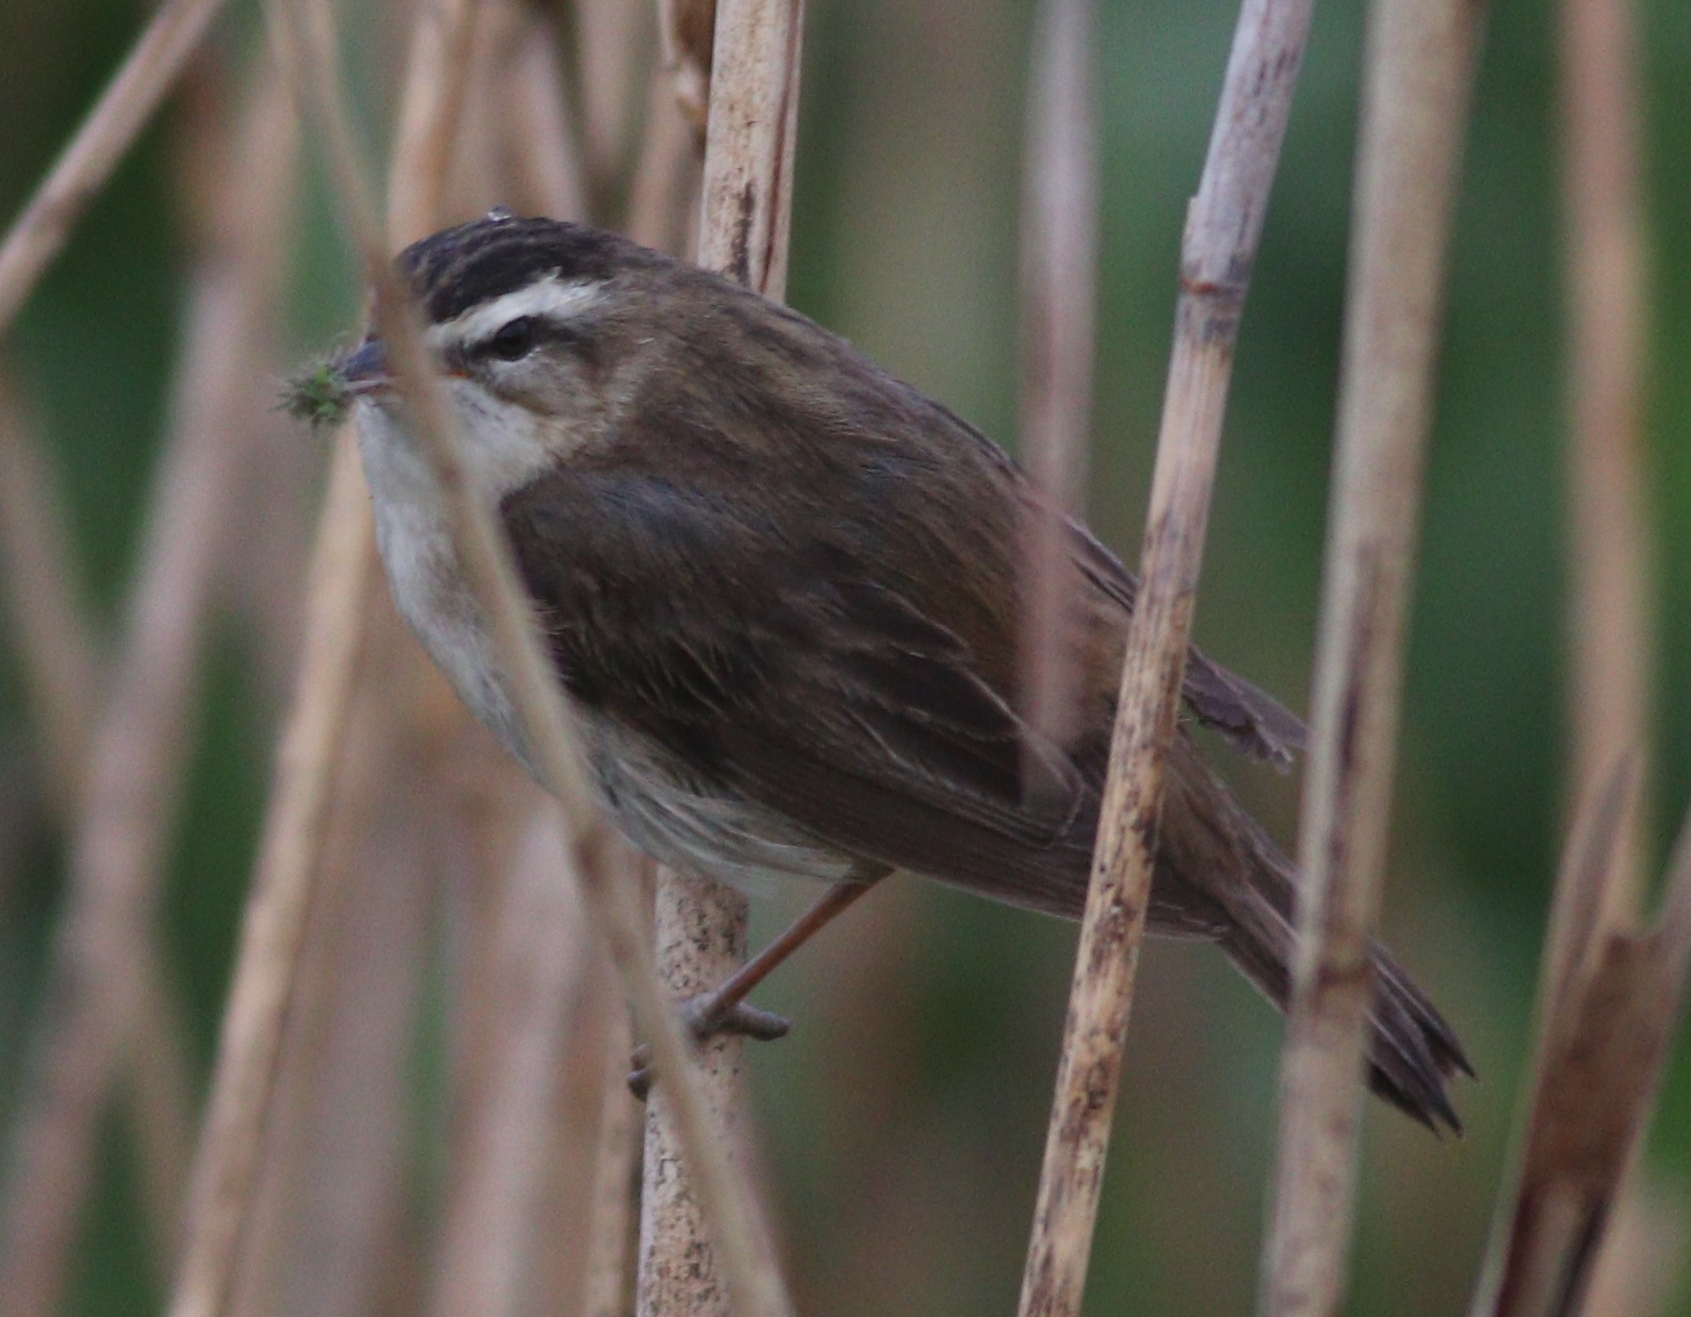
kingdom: Animalia
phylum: Chordata
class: Aves
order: Passeriformes
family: Acrocephalidae
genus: Acrocephalus
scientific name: Acrocephalus schoenobaenus
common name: Sedge warbler
